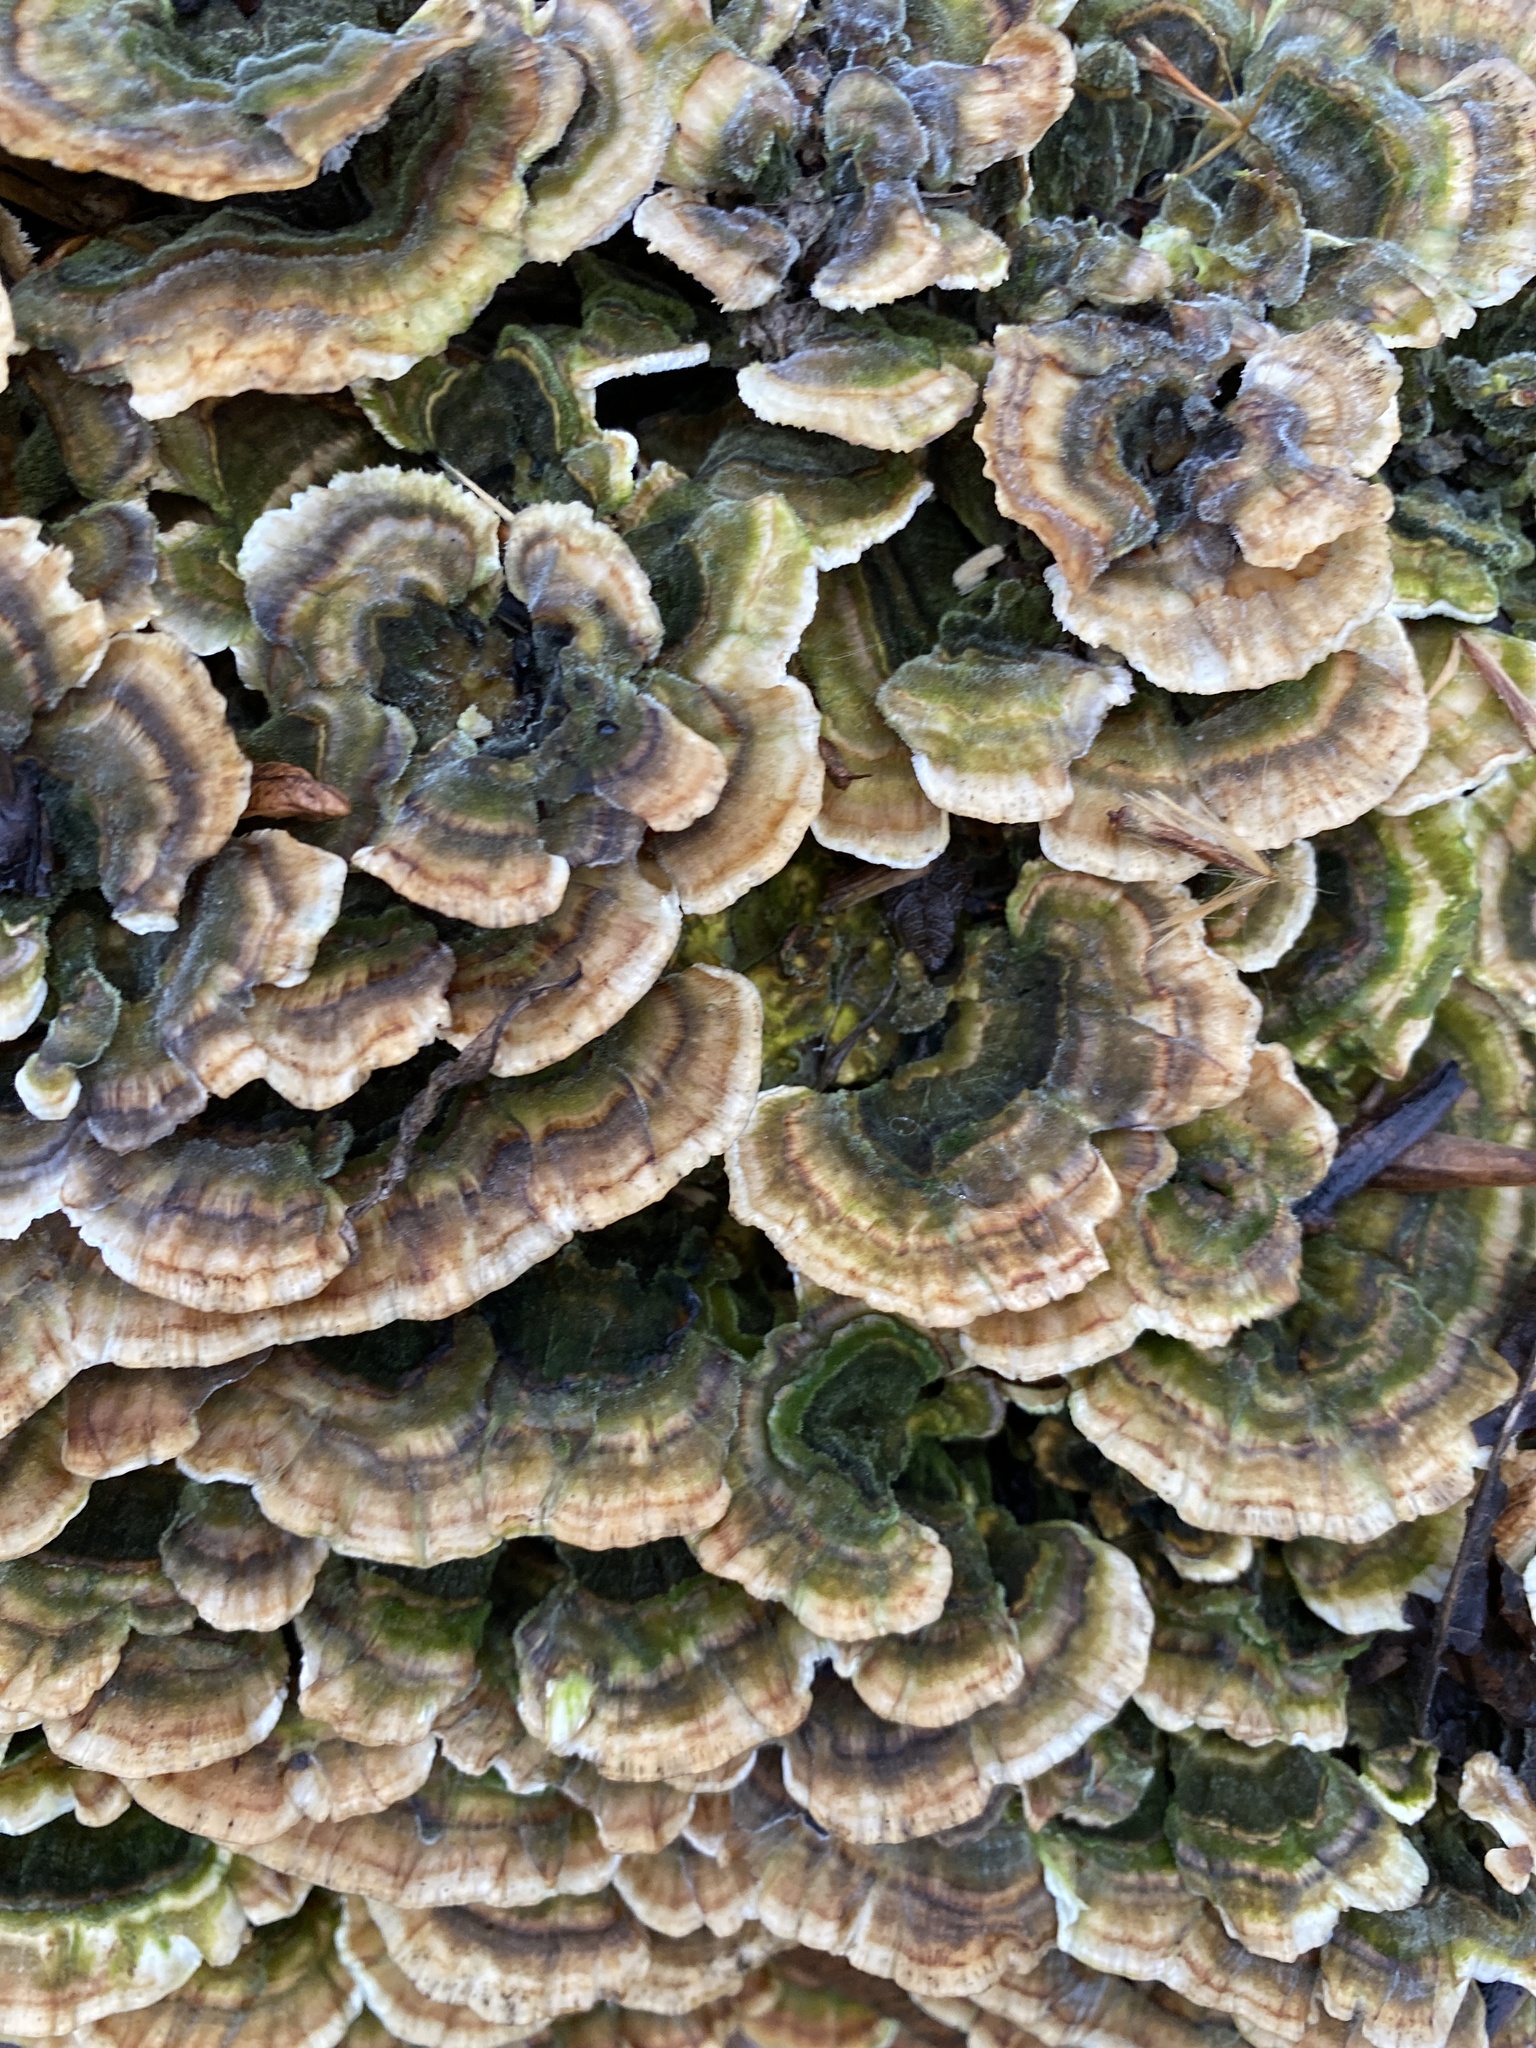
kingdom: Fungi
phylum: Basidiomycota
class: Agaricomycetes
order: Polyporales
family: Polyporaceae
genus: Trametes
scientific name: Trametes versicolor
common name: Turkeytail
